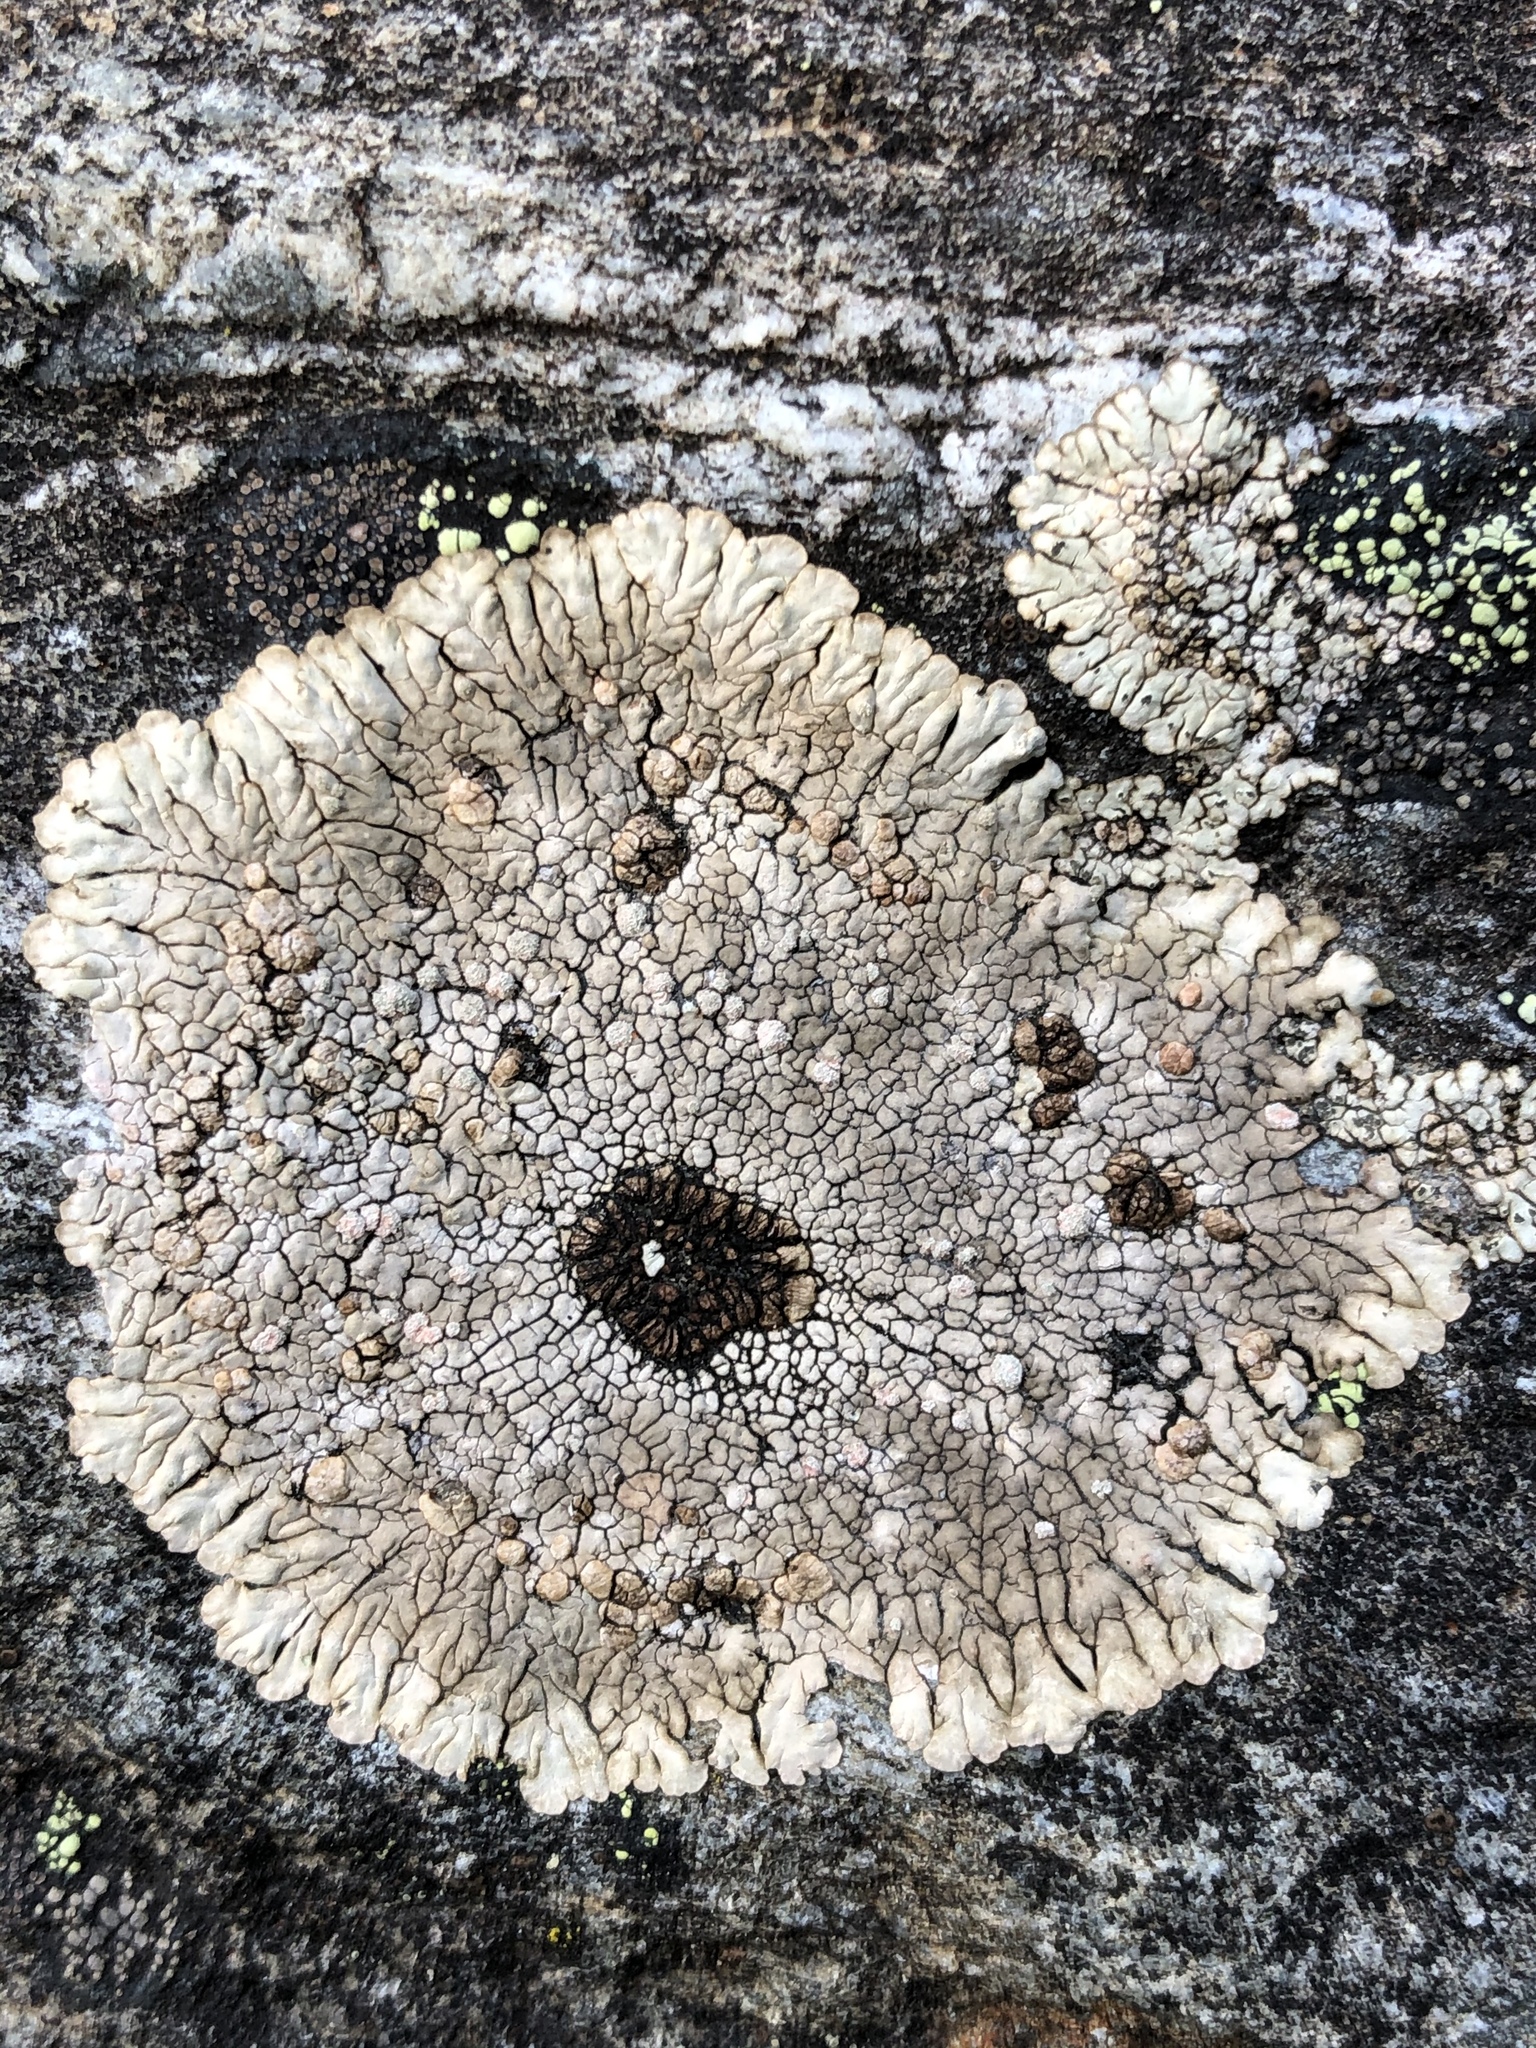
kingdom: Fungi
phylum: Ascomycota
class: Lecanoromycetes
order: Baeomycetales
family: Trapeliaceae
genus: Placopsis
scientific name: Placopsis gelida
